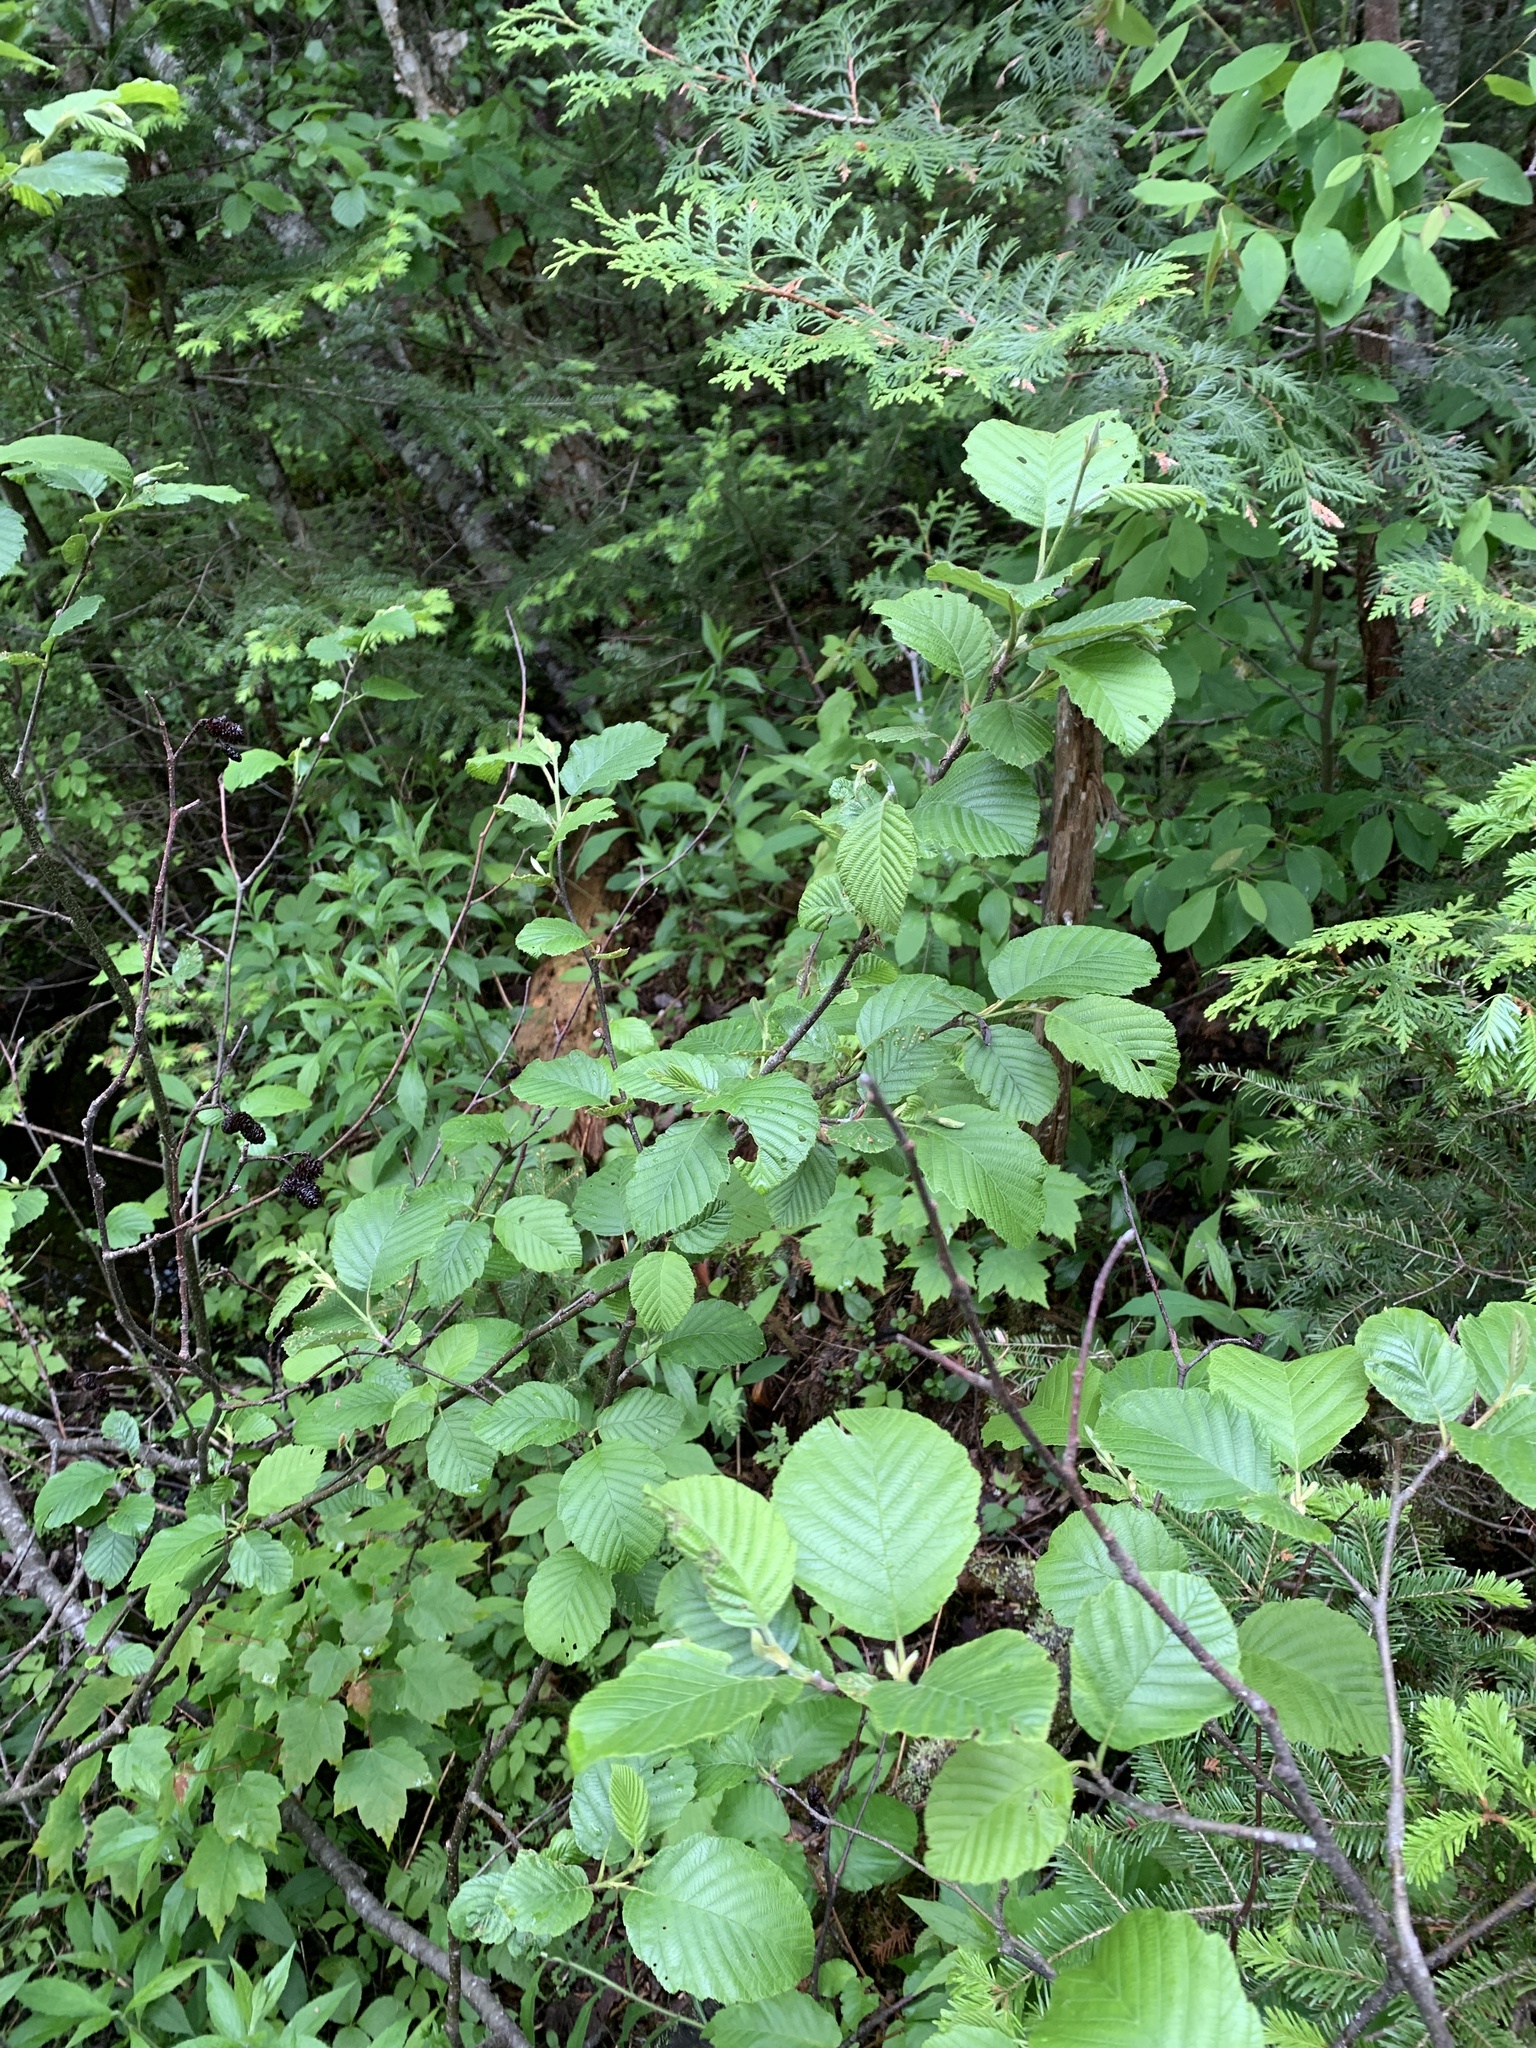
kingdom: Plantae
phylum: Tracheophyta
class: Magnoliopsida
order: Fagales
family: Betulaceae
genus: Alnus
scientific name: Alnus incana
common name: Grey alder
